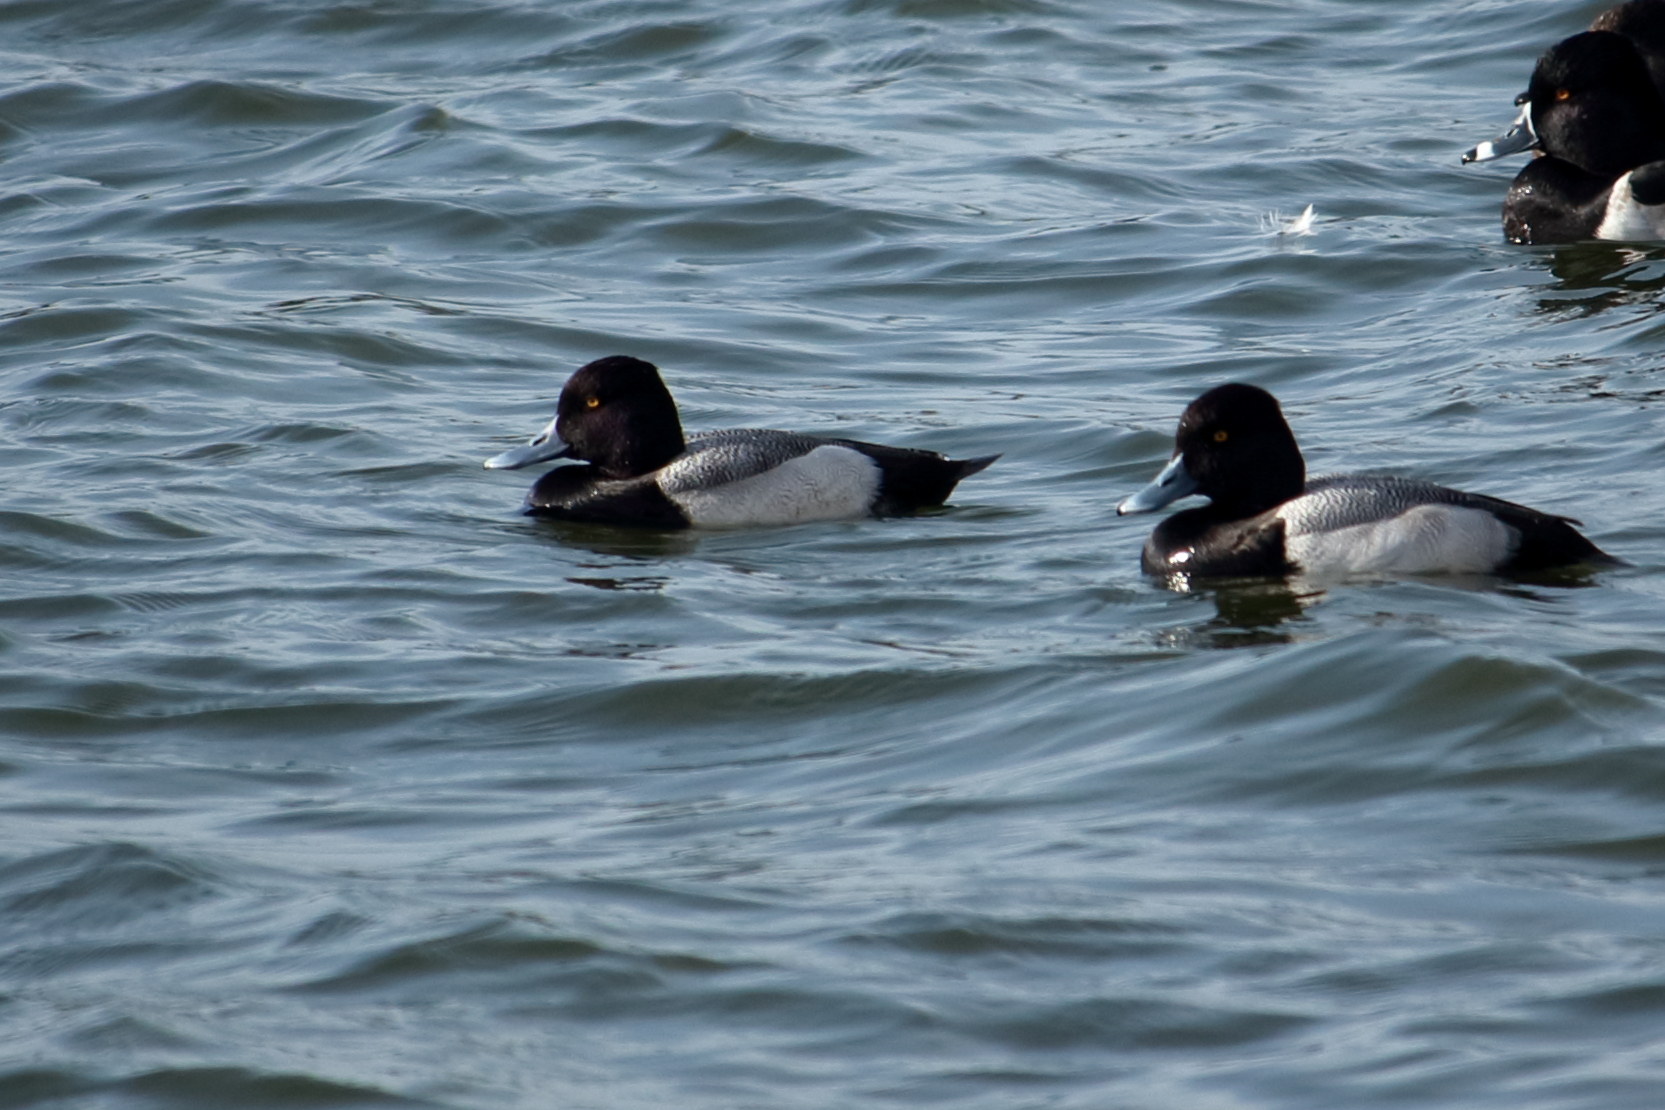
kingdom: Animalia
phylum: Chordata
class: Aves
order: Anseriformes
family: Anatidae
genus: Aythya
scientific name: Aythya affinis
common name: Lesser scaup
